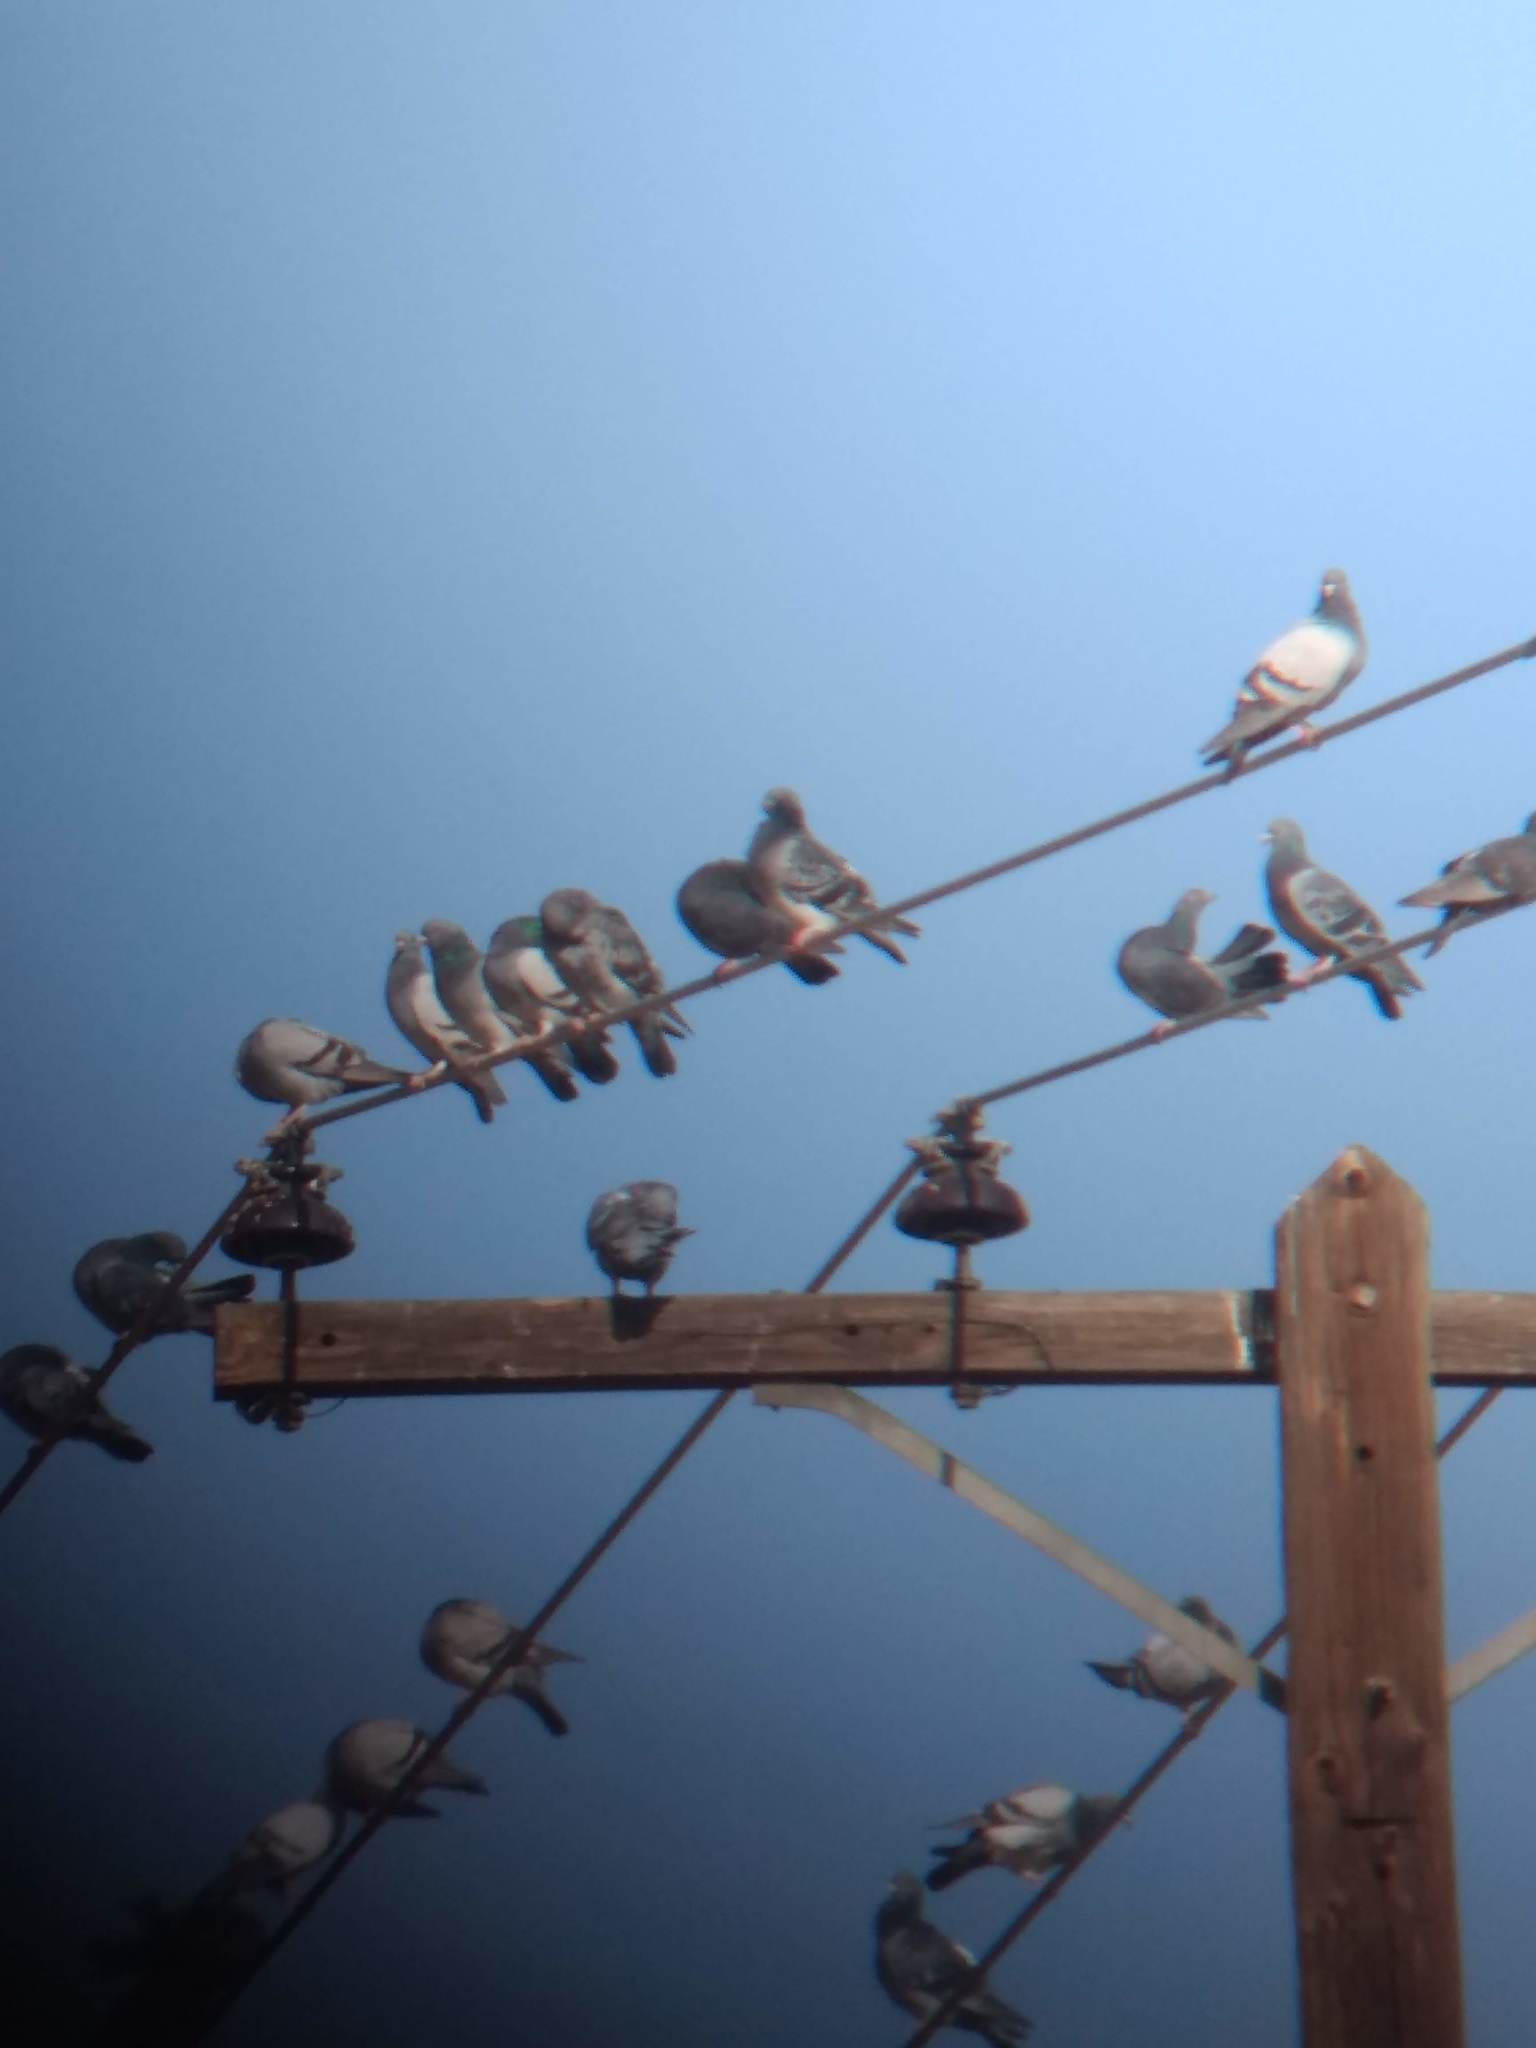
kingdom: Animalia
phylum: Chordata
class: Aves
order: Columbiformes
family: Columbidae
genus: Columba
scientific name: Columba livia
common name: Rock pigeon
